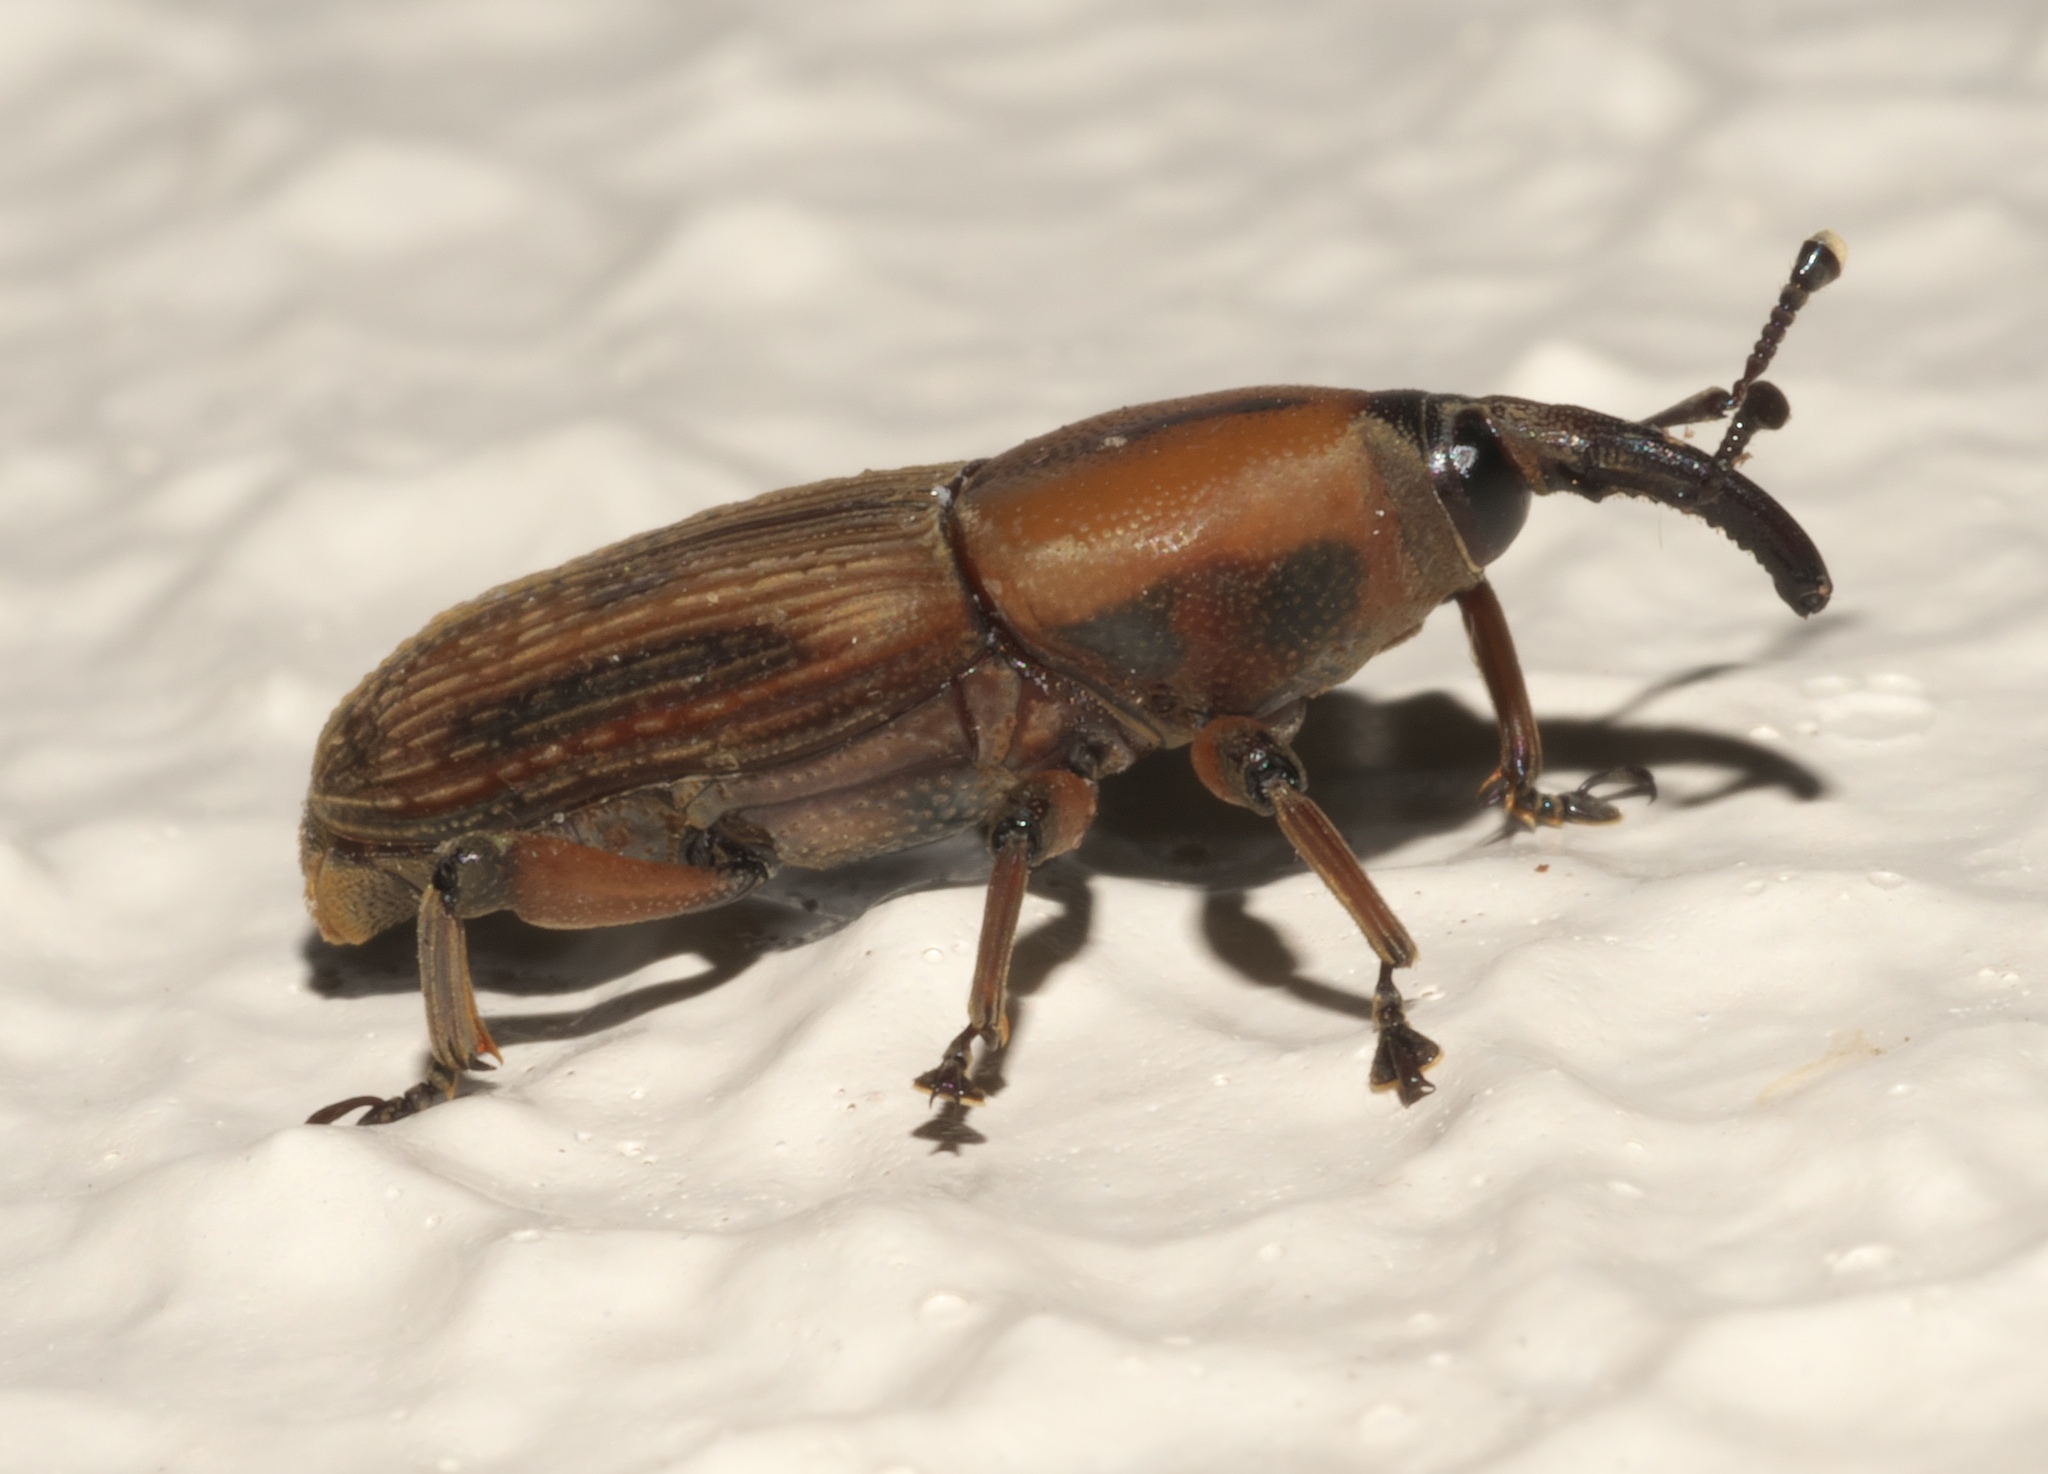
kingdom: Animalia
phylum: Arthropoda
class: Insecta
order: Coleoptera
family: Dryophthoridae
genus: Rhabdoscelus
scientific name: Rhabdoscelus obscurus
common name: Cane weevil borer
